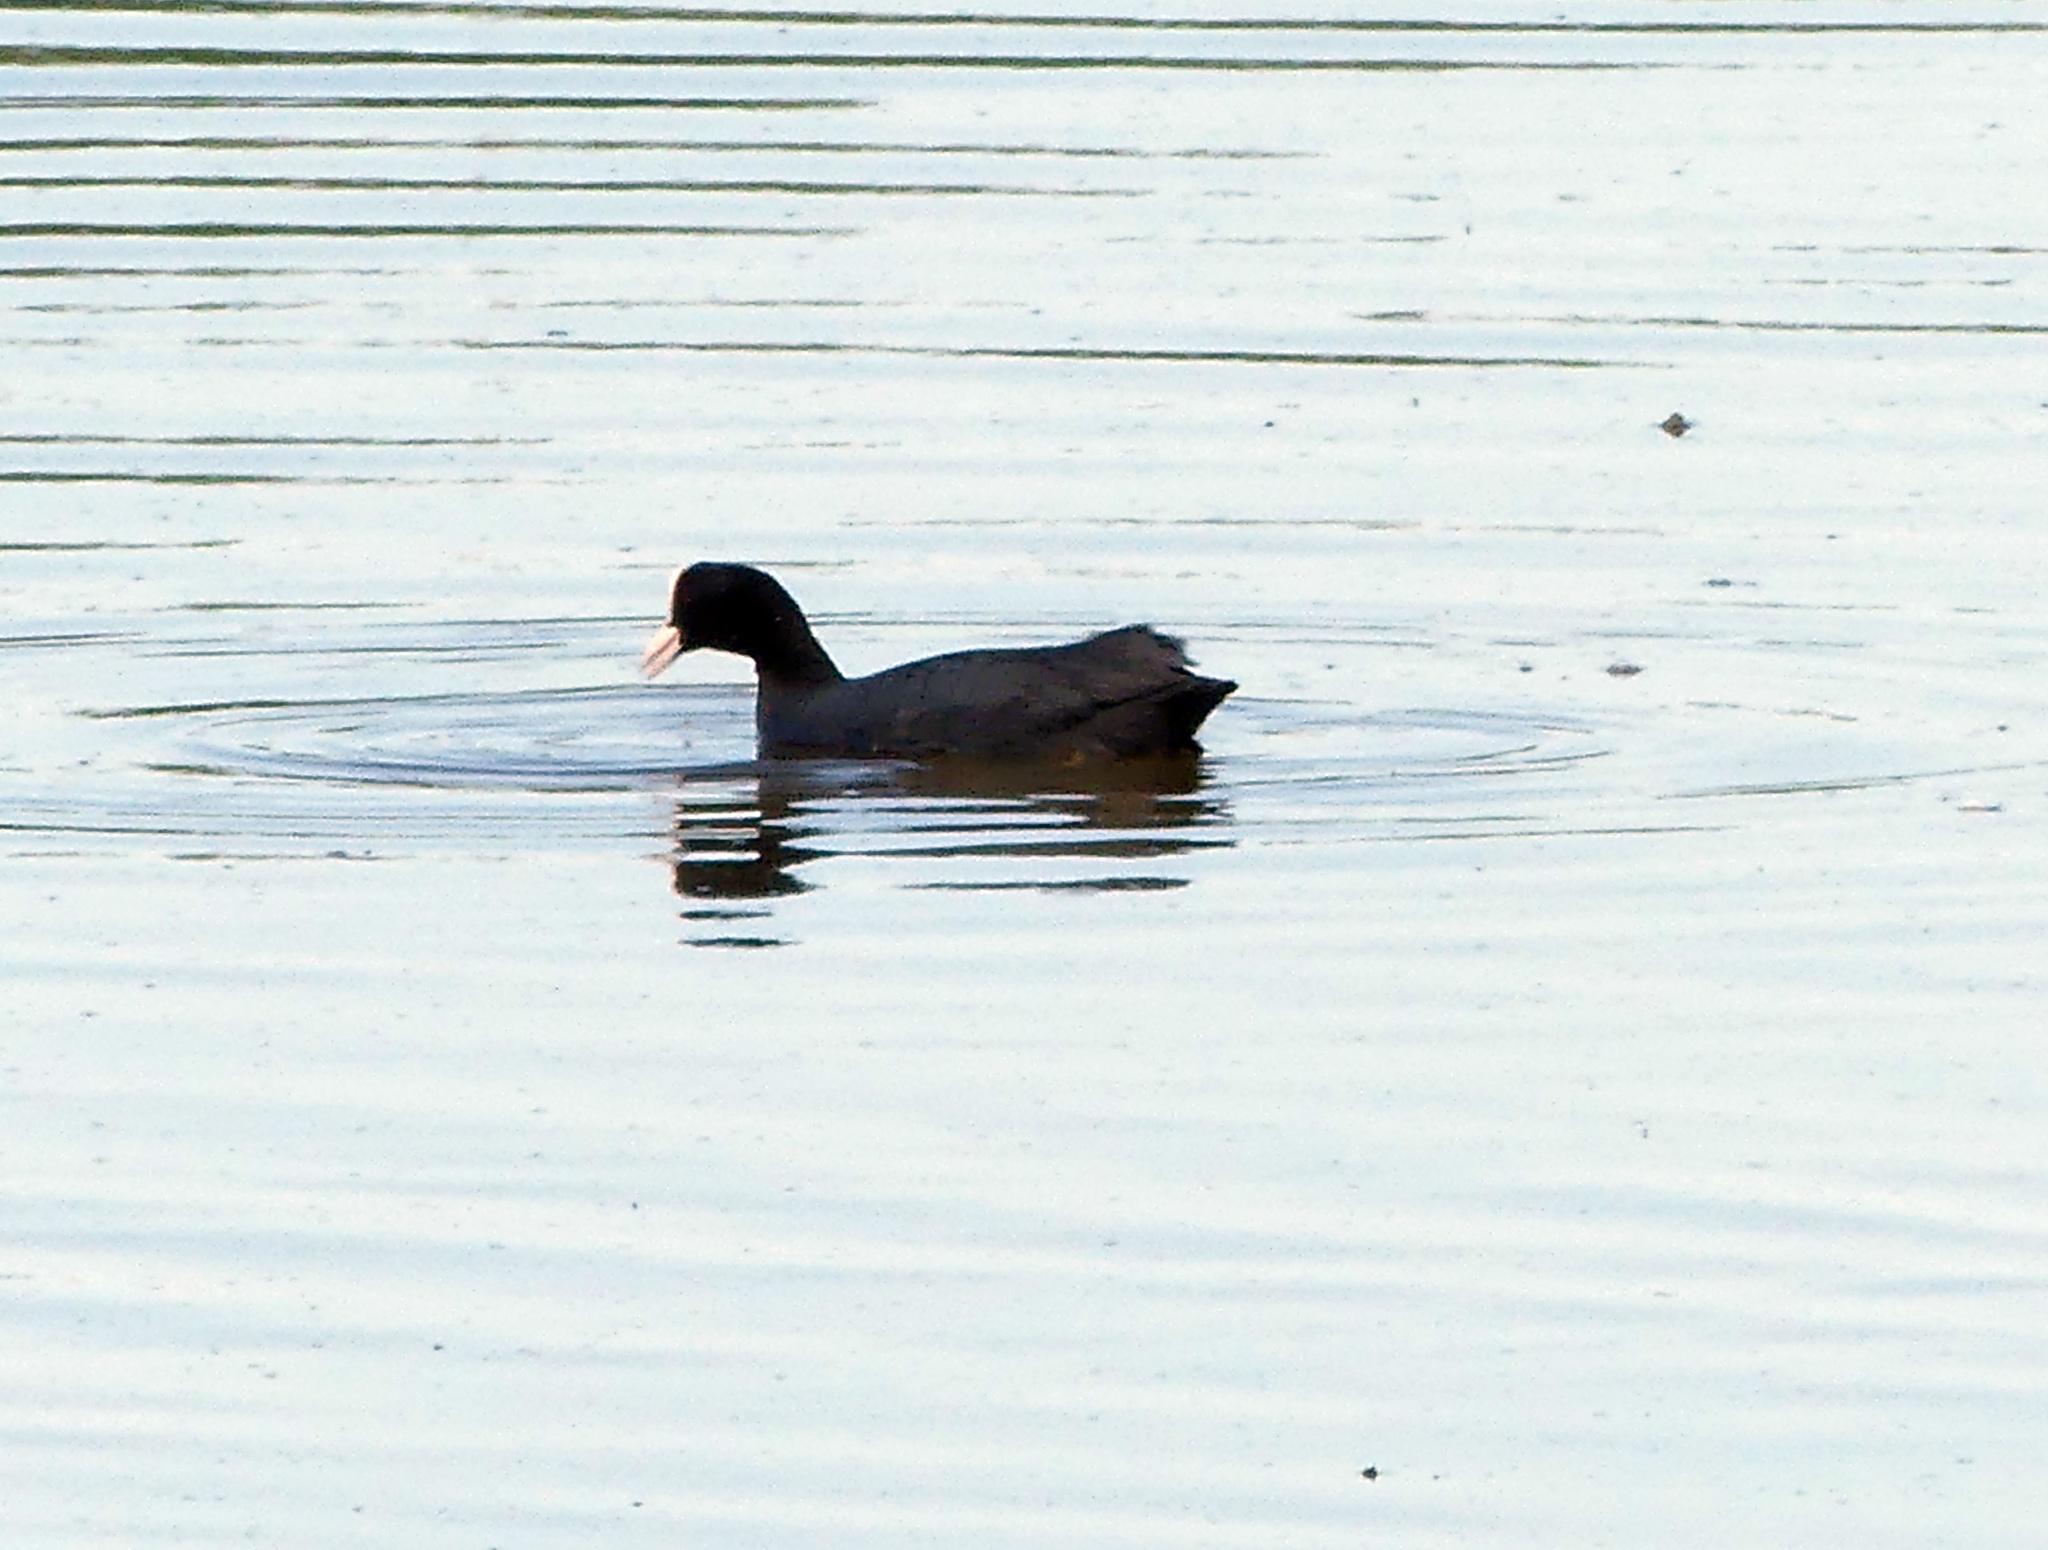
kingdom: Animalia
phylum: Chordata
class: Aves
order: Gruiformes
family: Rallidae
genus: Fulica
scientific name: Fulica atra
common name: Eurasian coot
